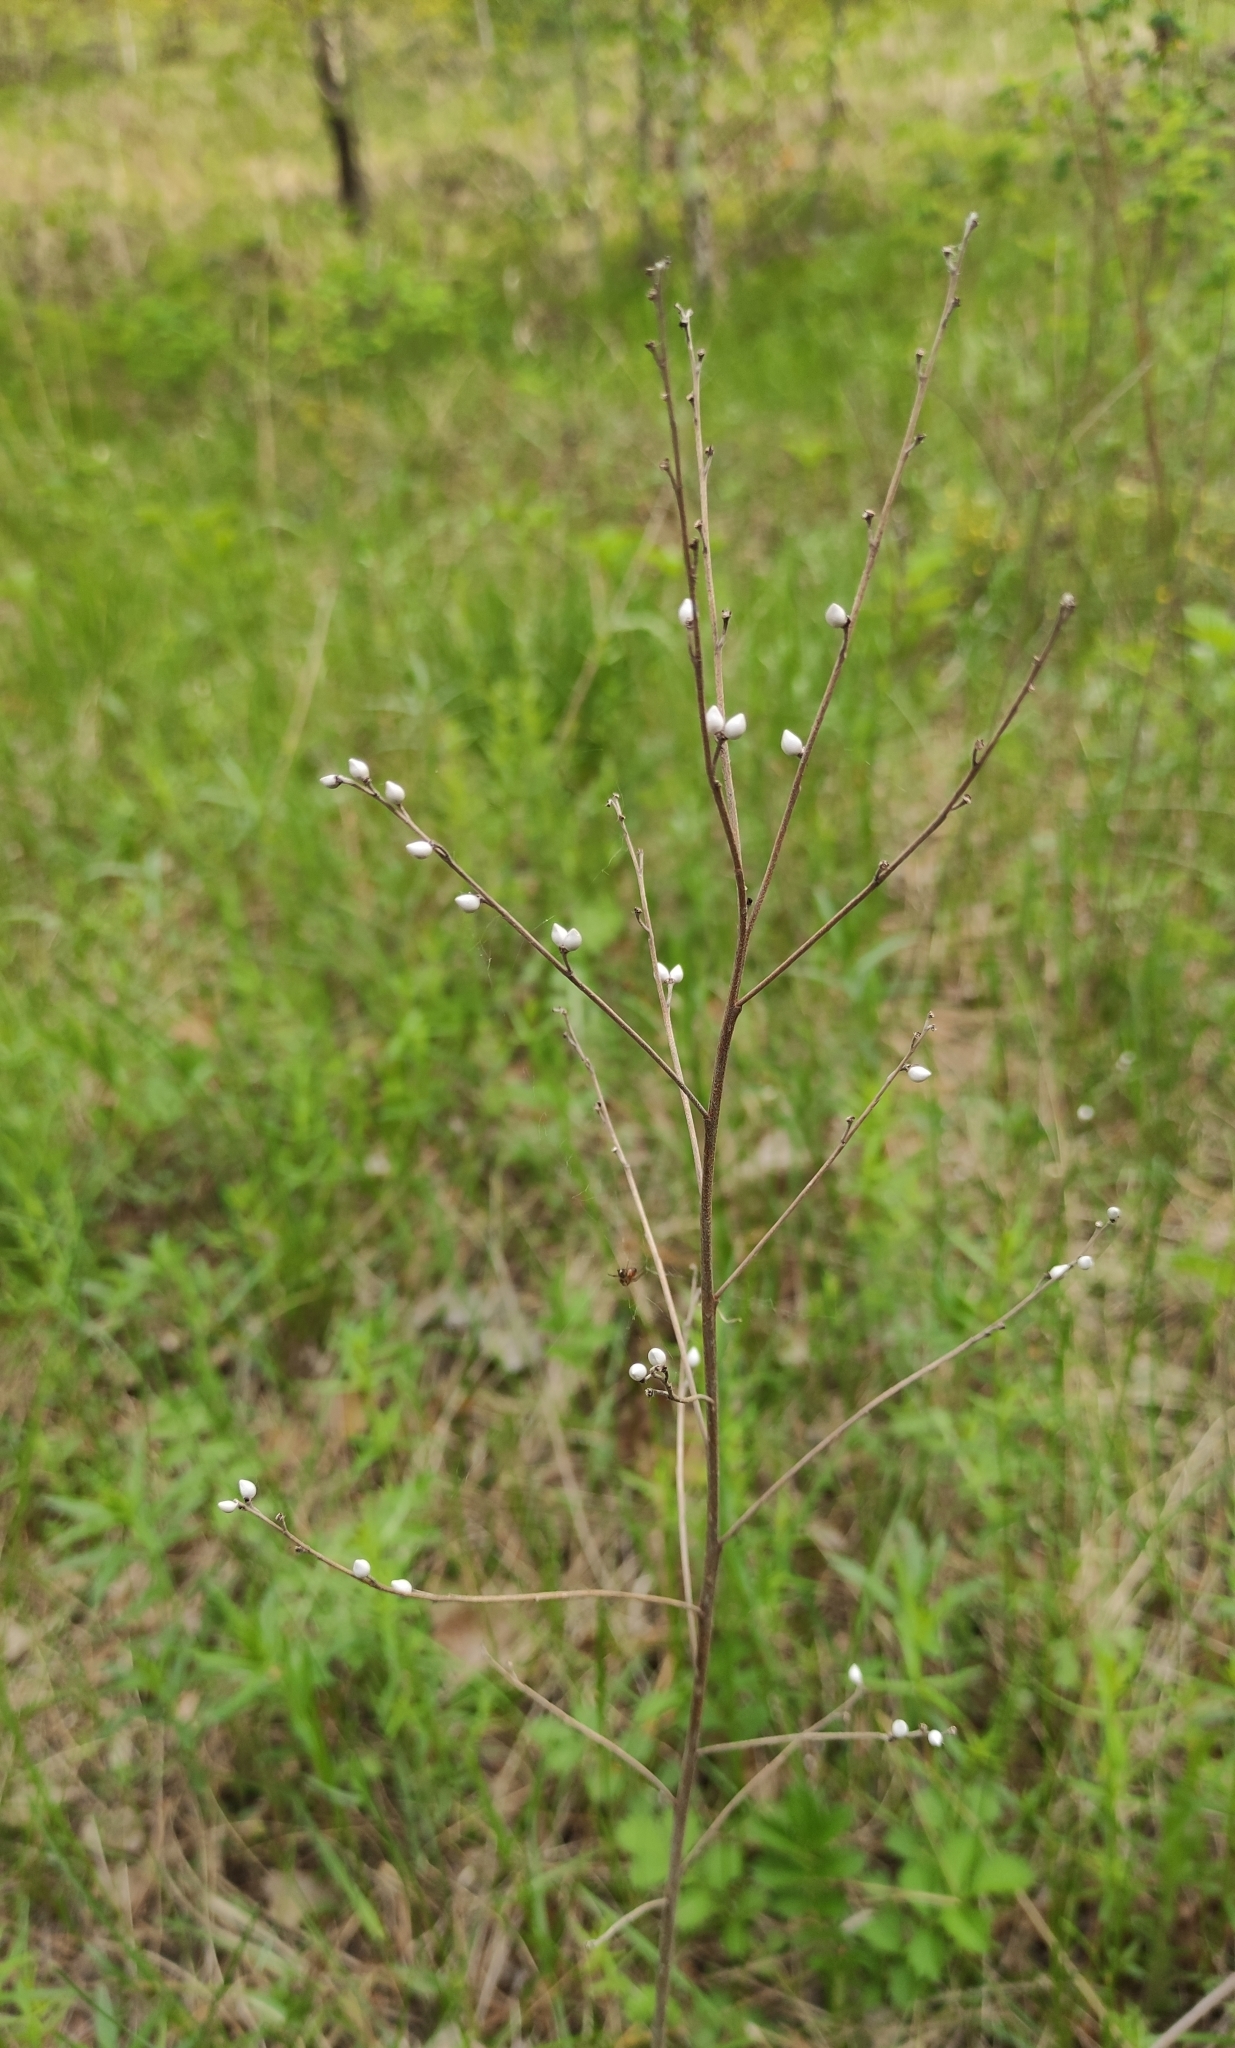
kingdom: Plantae
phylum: Tracheophyta
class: Magnoliopsida
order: Boraginales
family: Boraginaceae
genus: Lithospermum
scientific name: Lithospermum officinale
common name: Common gromwell
